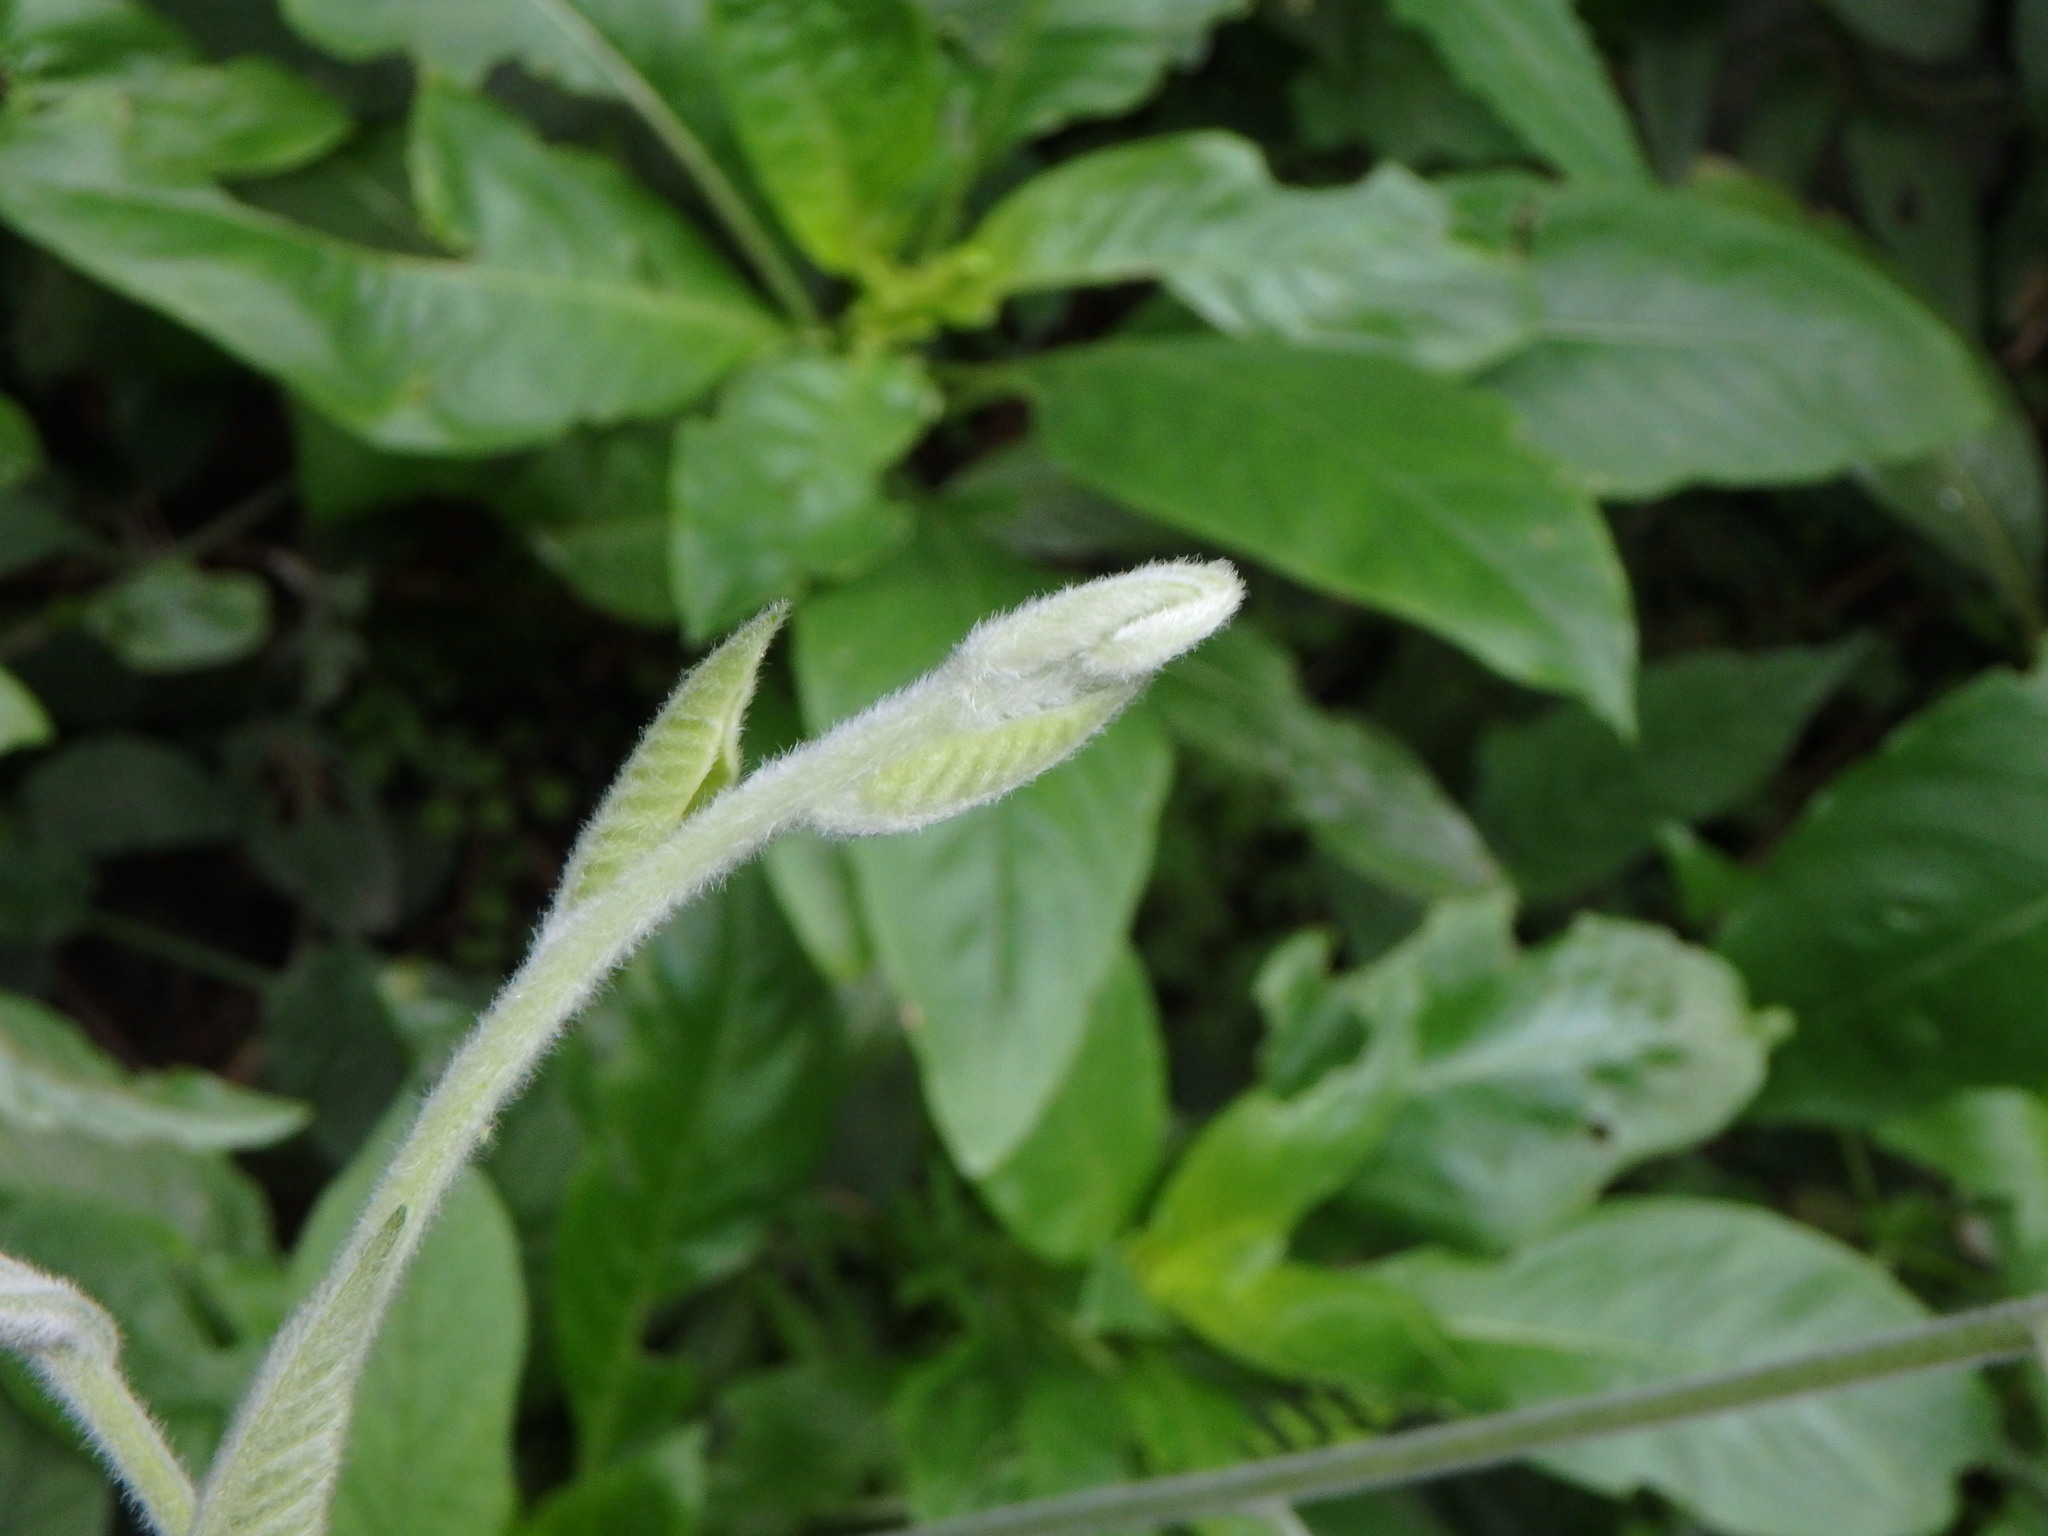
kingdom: Plantae
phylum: Tracheophyta
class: Magnoliopsida
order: Solanales
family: Convolvulaceae
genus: Convolvulus
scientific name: Convolvulus canariensis
